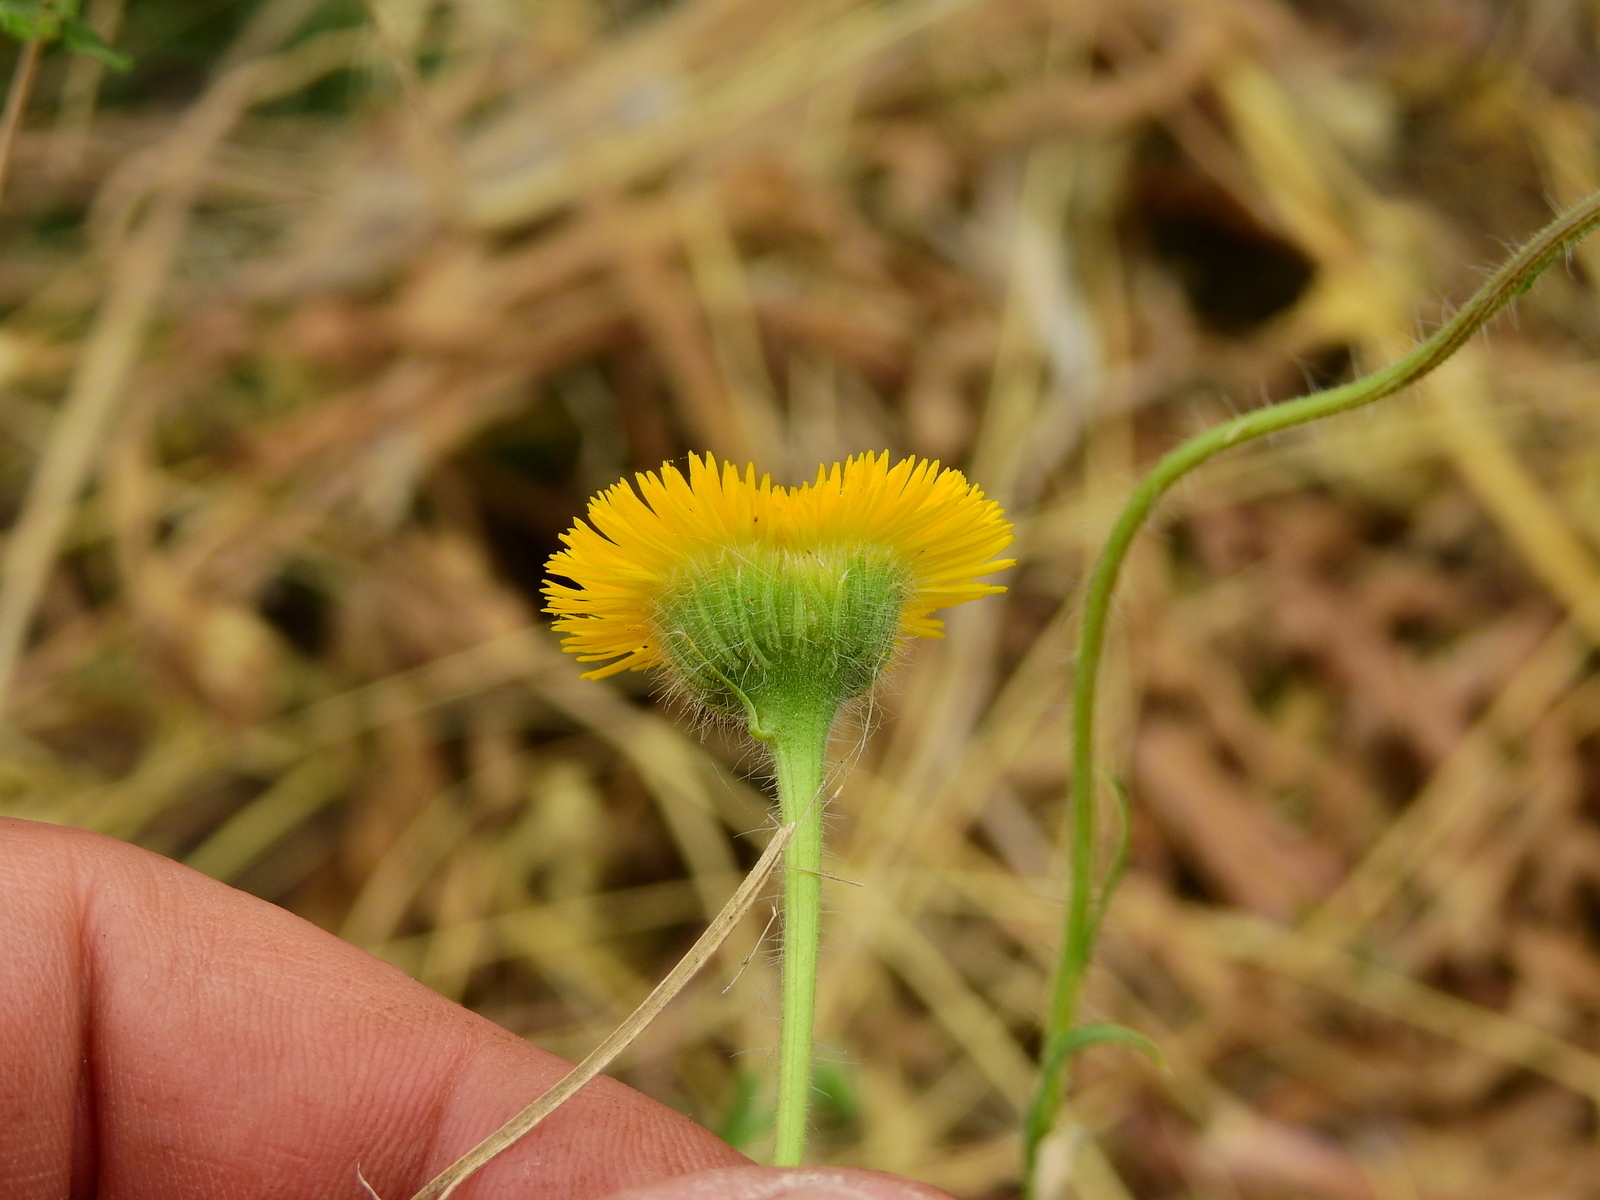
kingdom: Plantae
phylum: Tracheophyta
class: Magnoliopsida
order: Asterales
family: Asteraceae
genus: Hysterionica
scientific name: Hysterionica jasionoides
